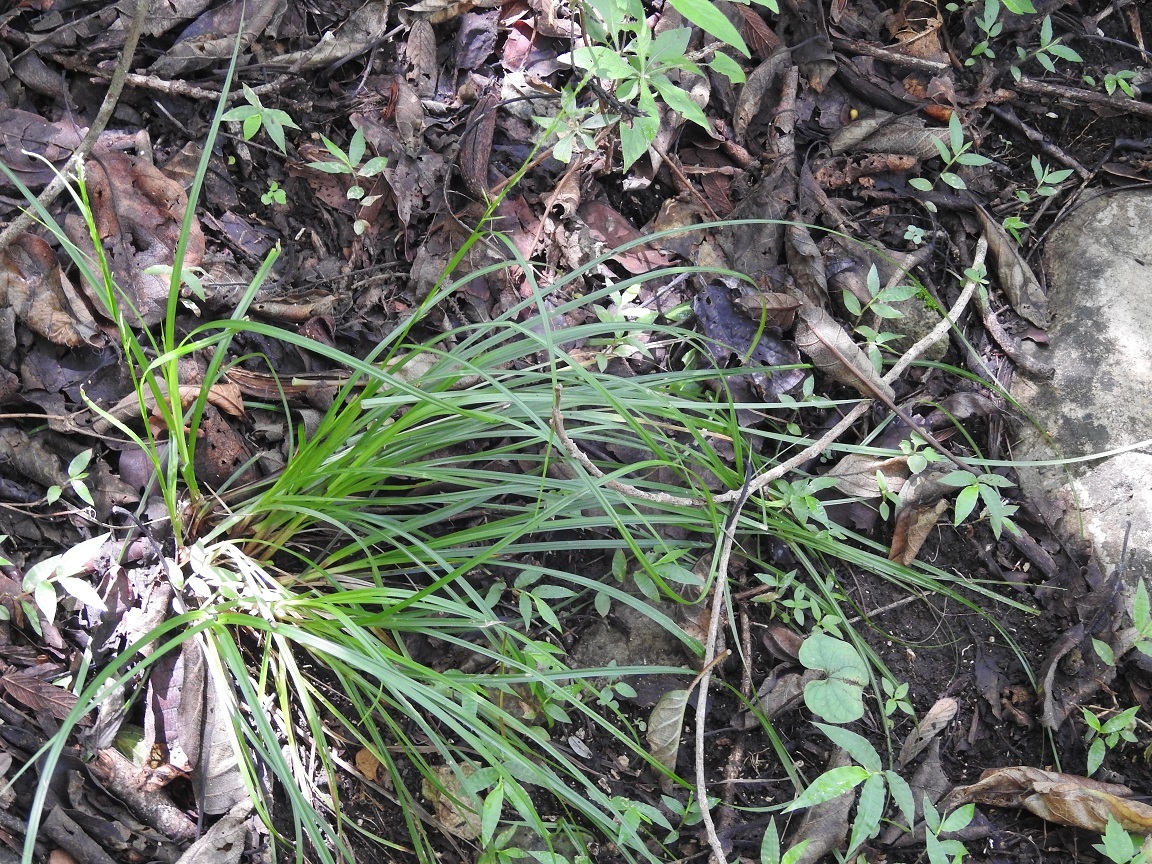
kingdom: Plantae
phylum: Tracheophyta
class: Liliopsida
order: Poales
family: Cyperaceae
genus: Carex
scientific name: Carex hamata
